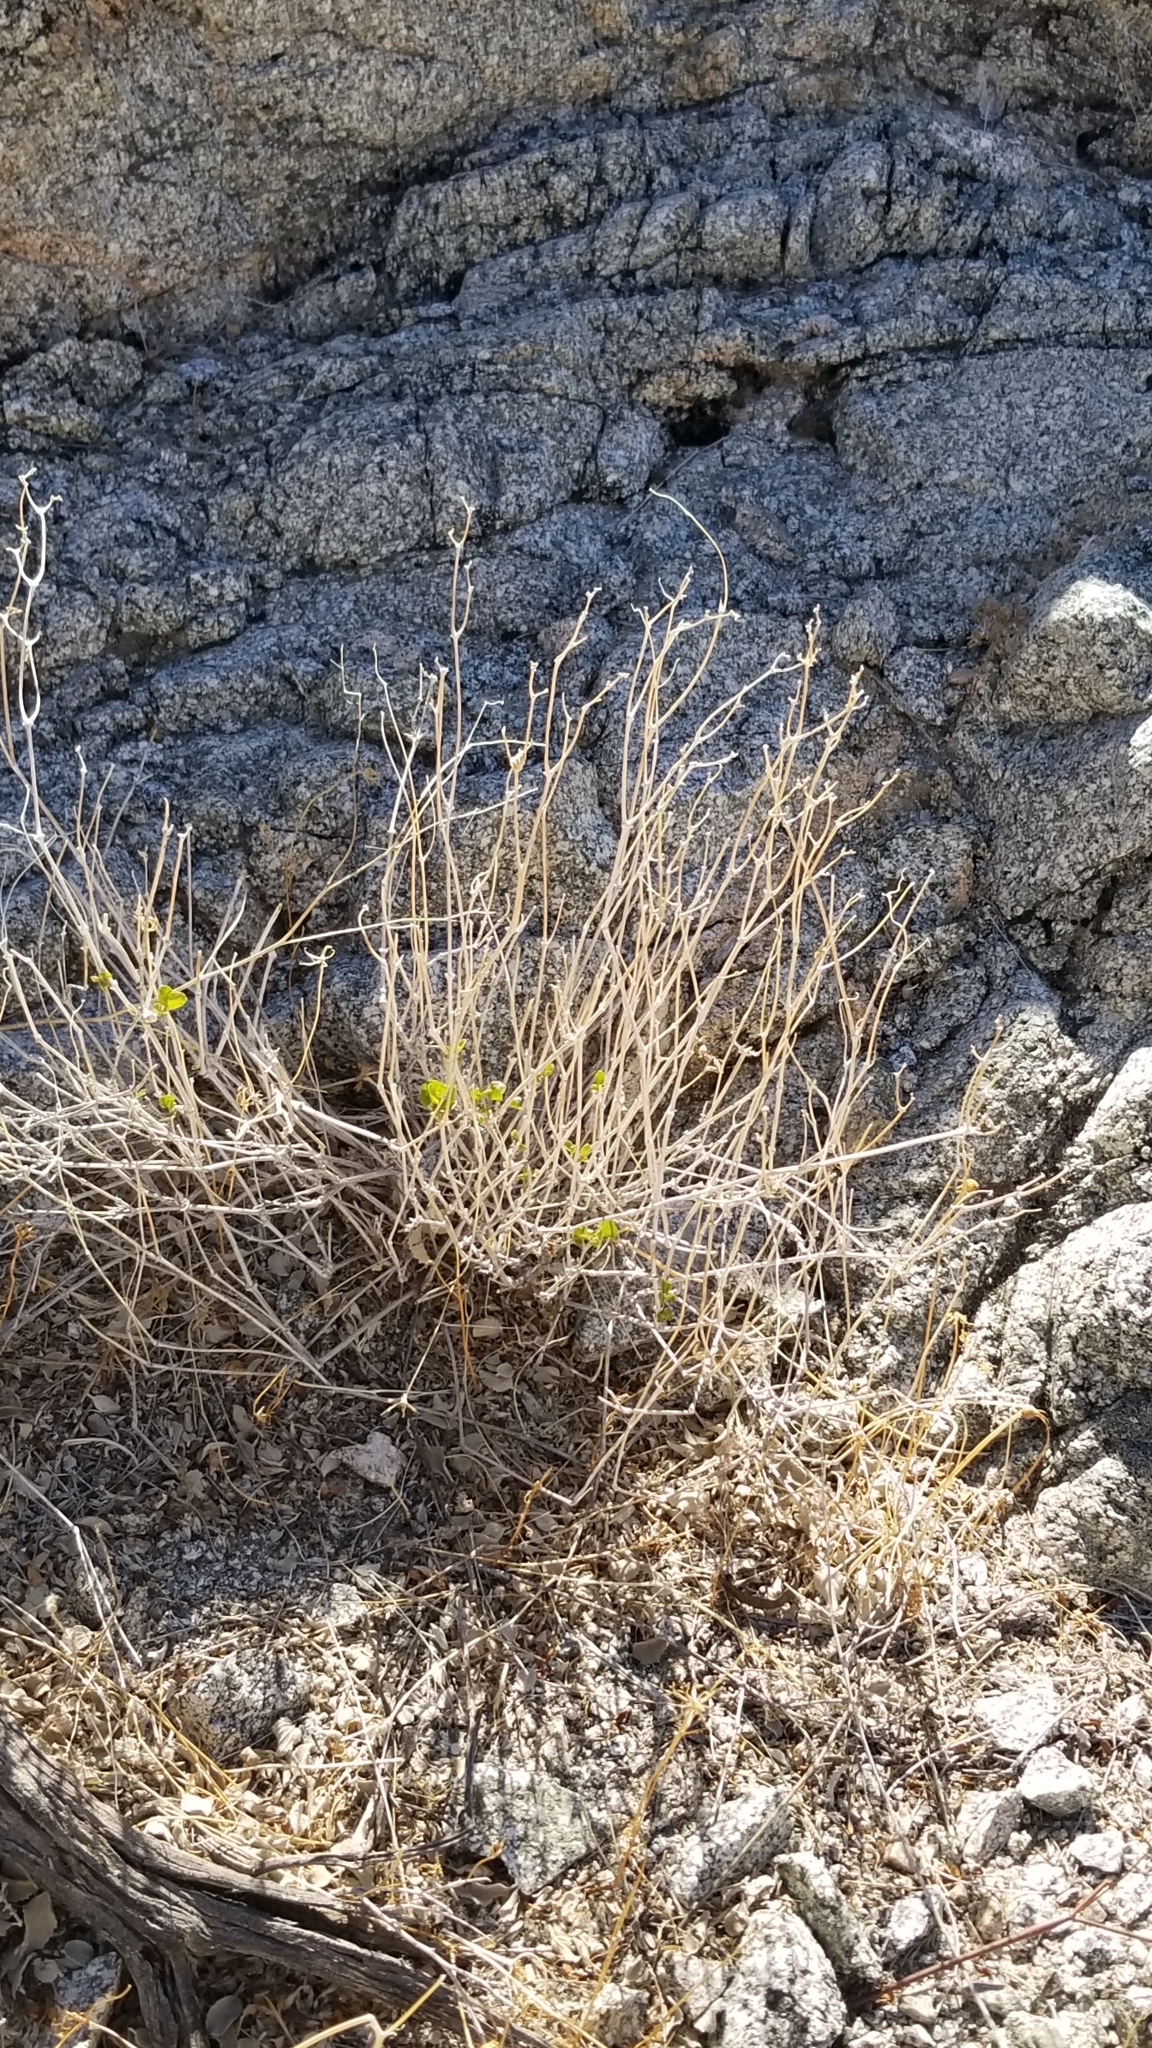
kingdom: Plantae
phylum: Tracheophyta
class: Magnoliopsida
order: Caryophyllales
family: Nyctaginaceae
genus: Mirabilis
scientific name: Mirabilis laevis
